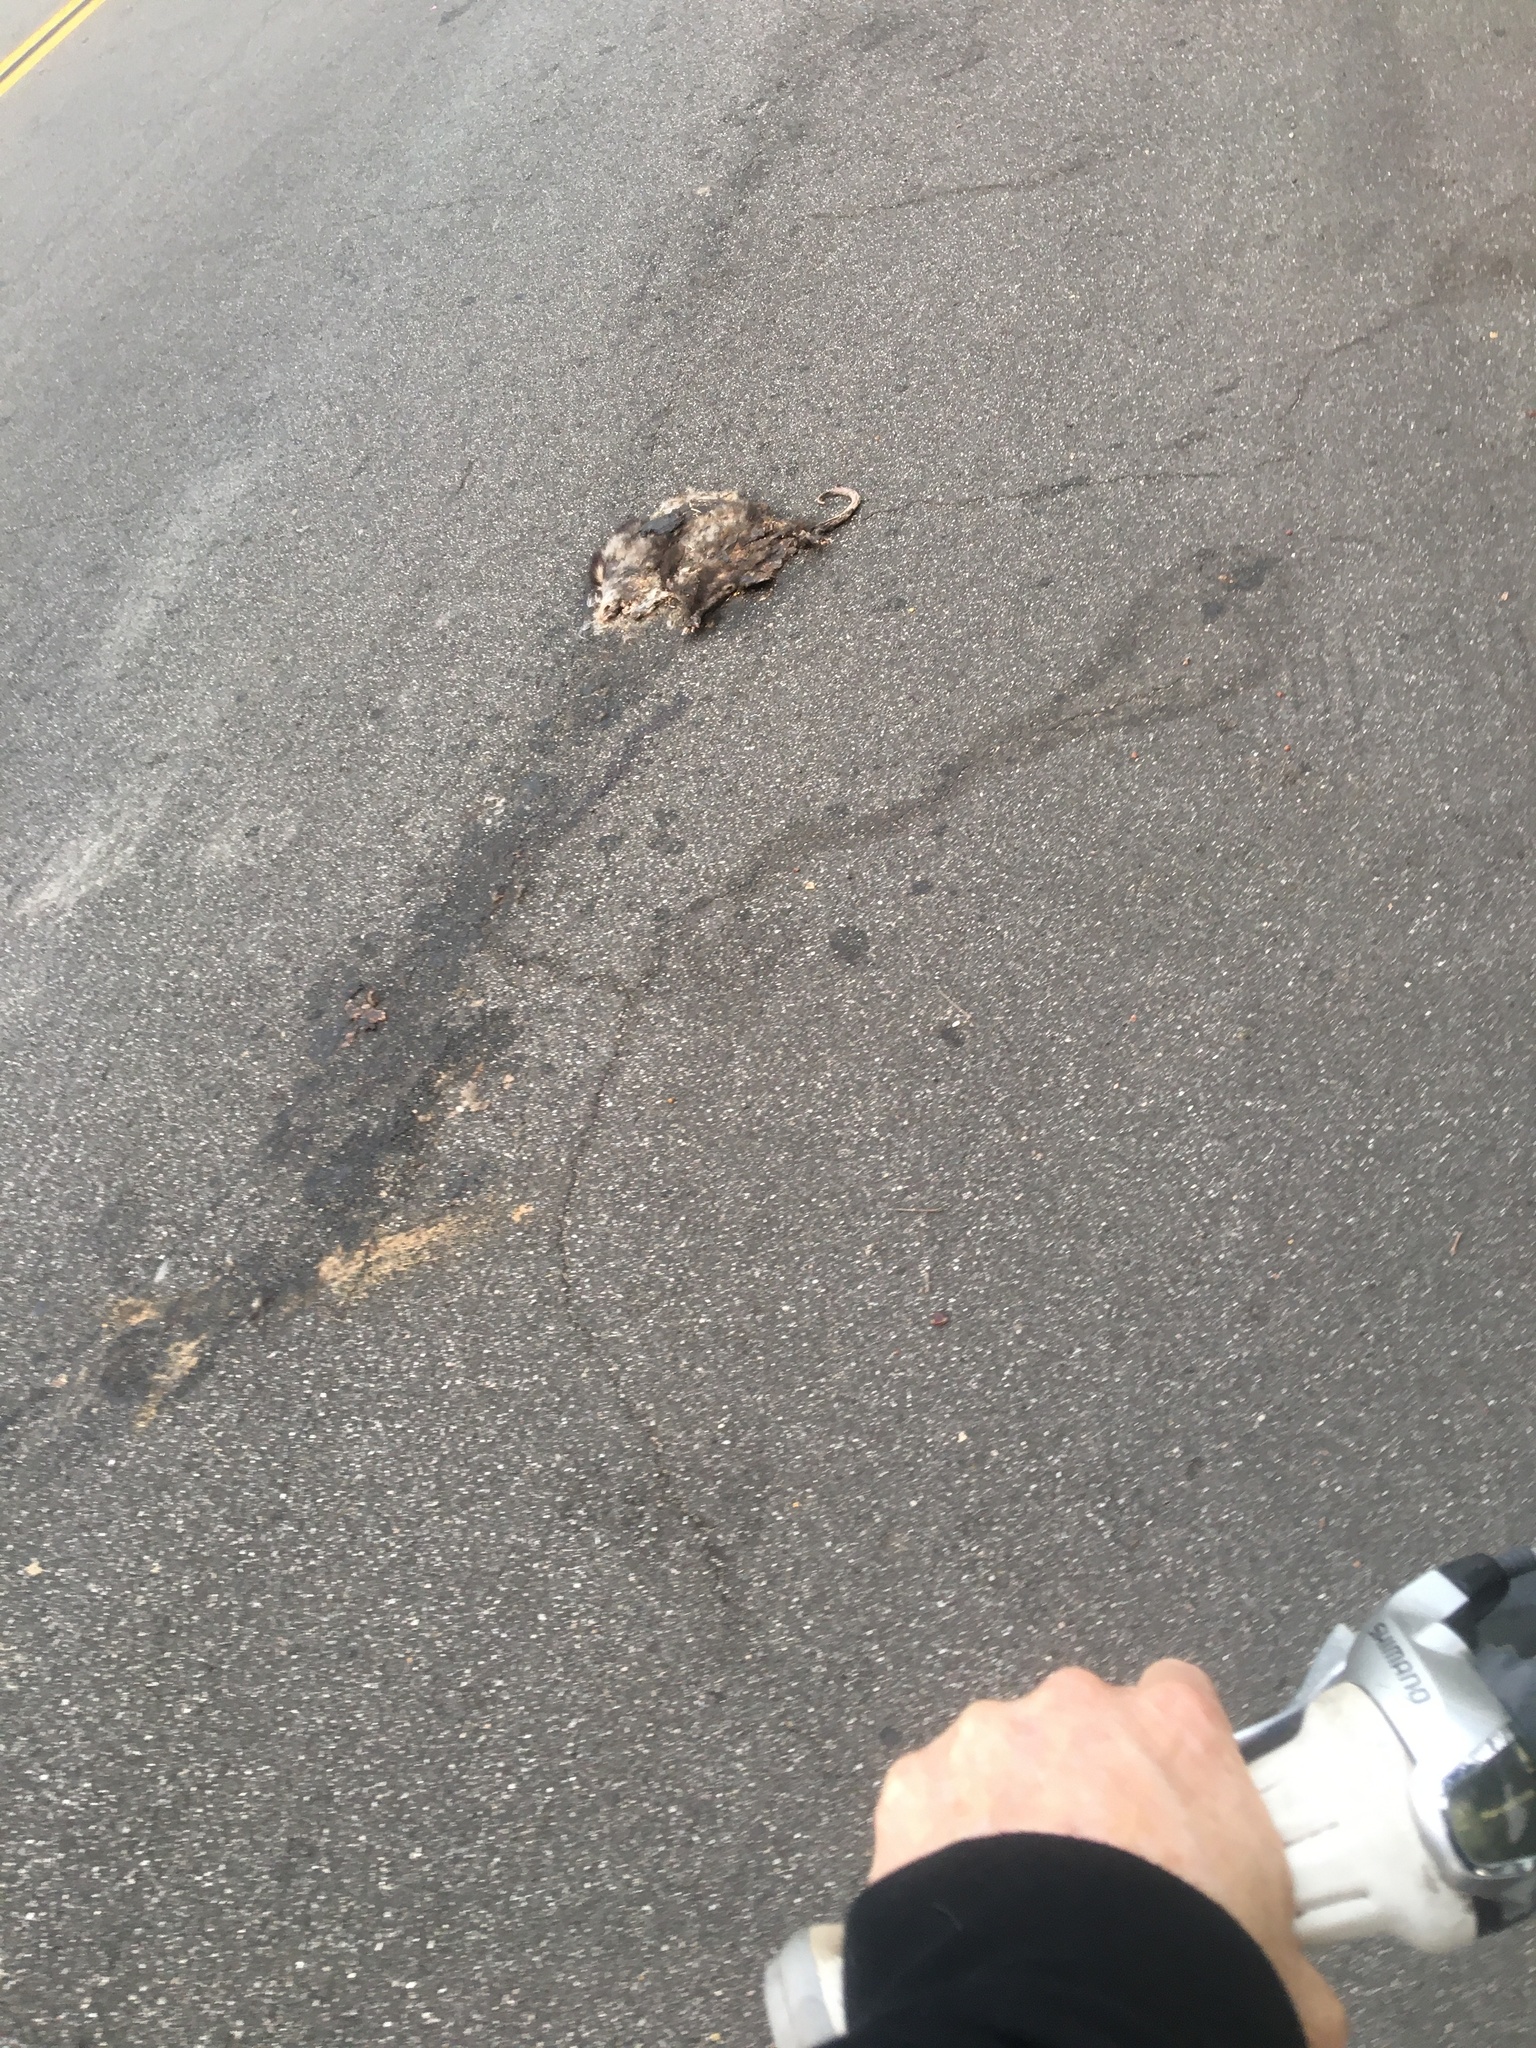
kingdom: Animalia
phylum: Chordata
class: Mammalia
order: Didelphimorphia
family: Didelphidae
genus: Didelphis
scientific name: Didelphis virginiana
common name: Virginia opossum
